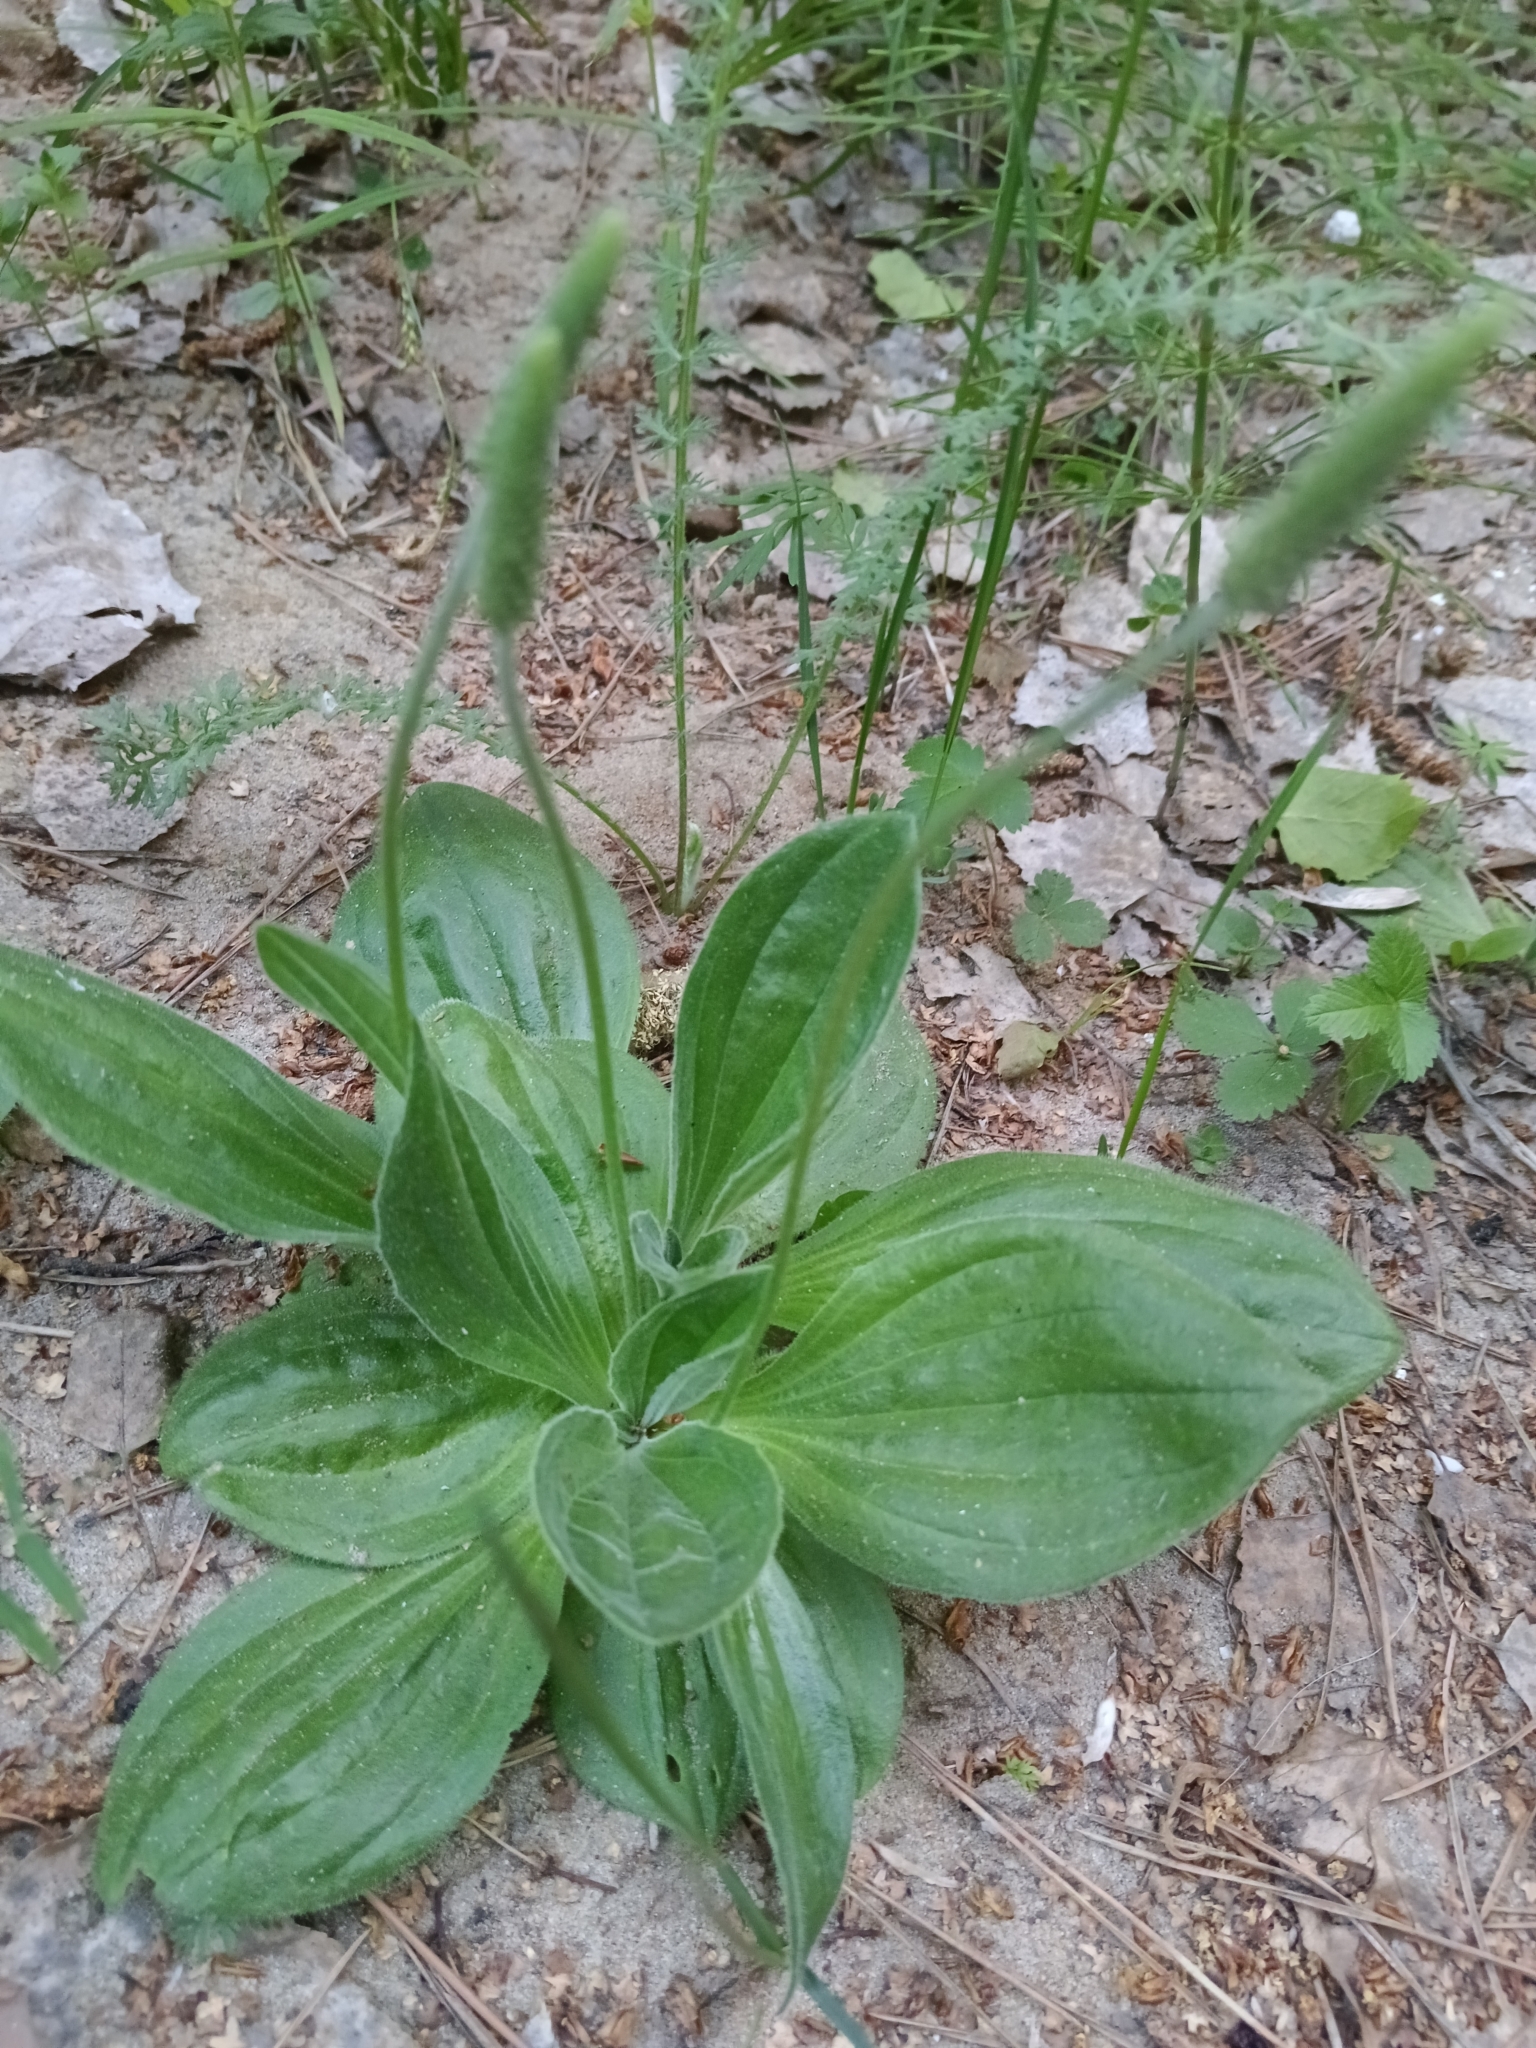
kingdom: Plantae
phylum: Tracheophyta
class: Magnoliopsida
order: Lamiales
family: Plantaginaceae
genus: Plantago
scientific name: Plantago media
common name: Hoary plantain
